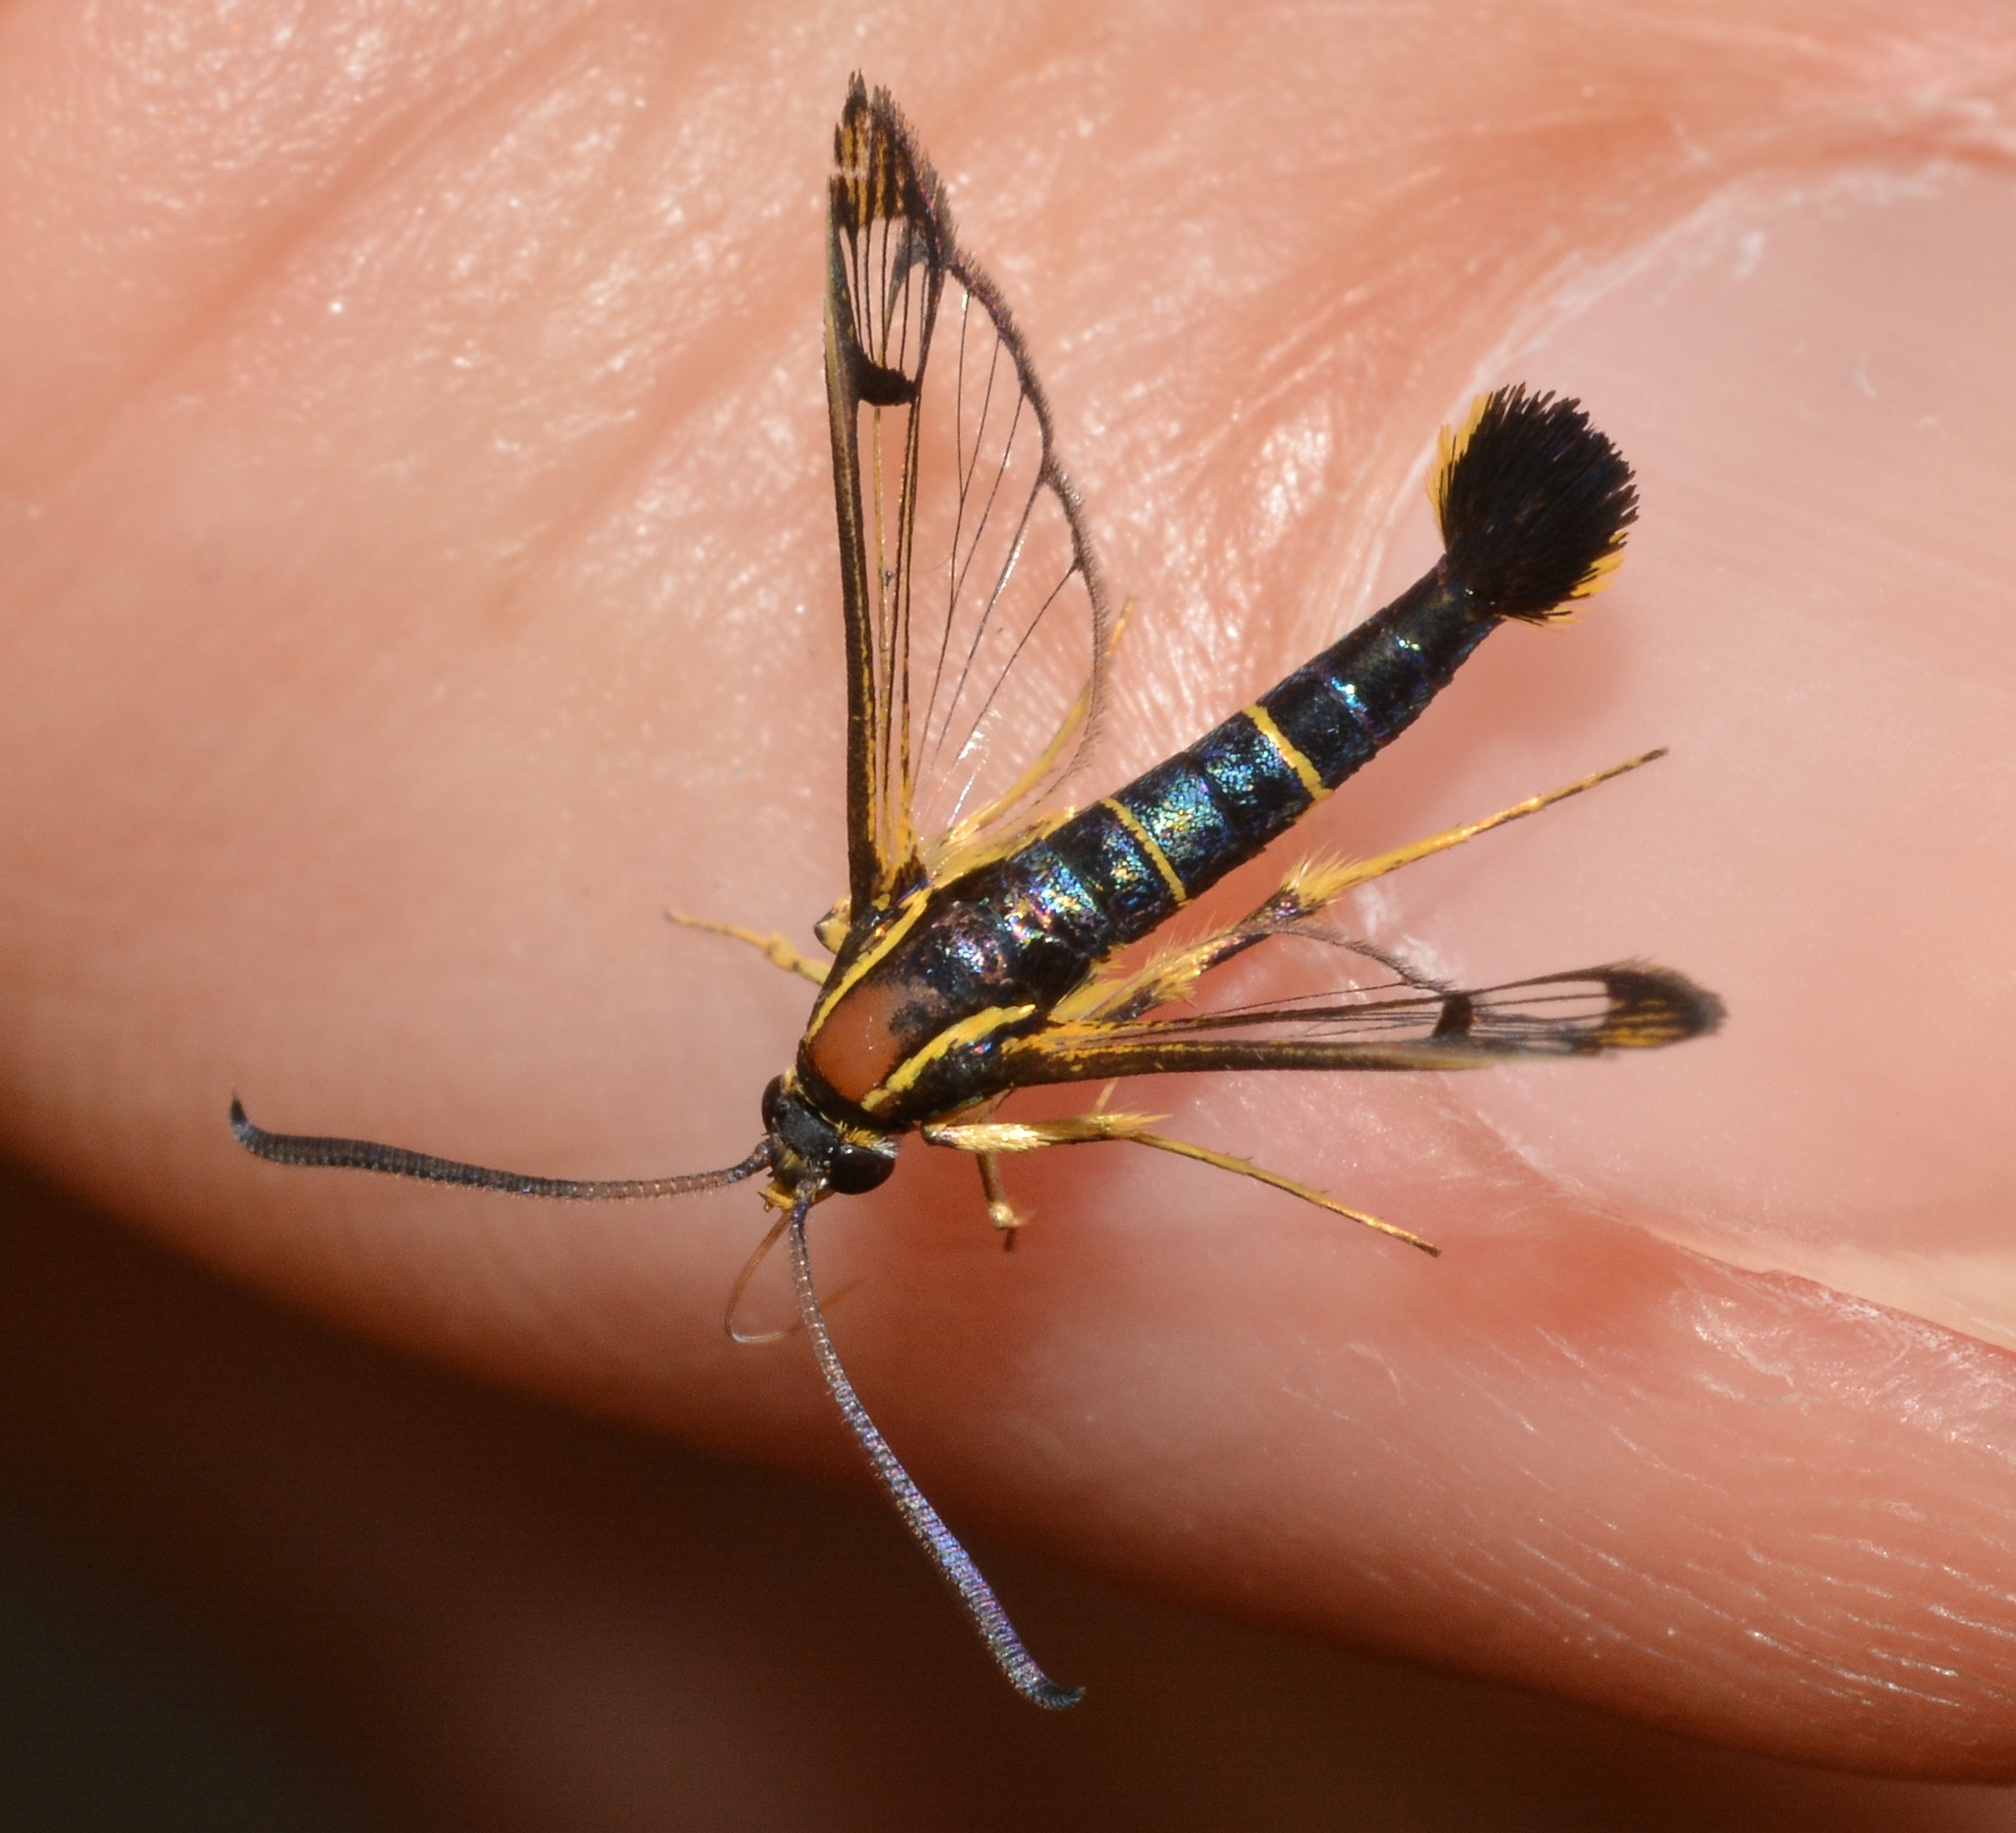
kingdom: Animalia
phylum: Arthropoda
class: Insecta
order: Lepidoptera
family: Sesiidae
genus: Synanthedon
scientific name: Synanthedon scitula
